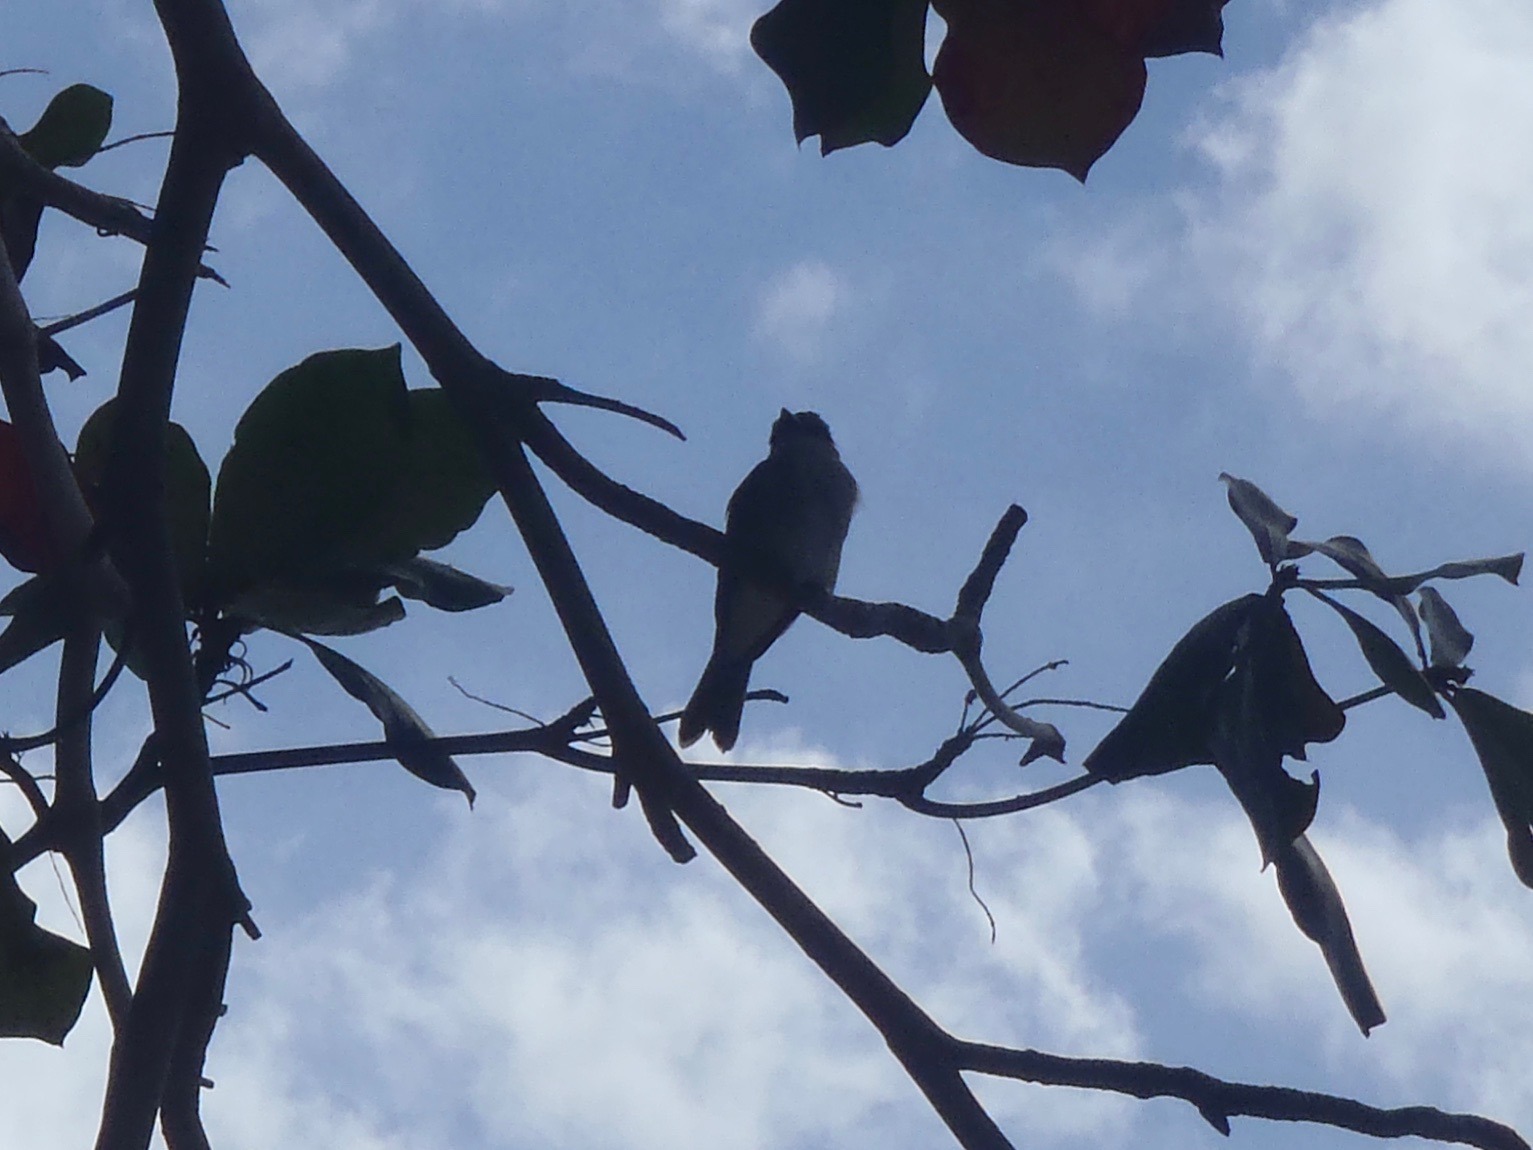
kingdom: Animalia
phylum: Chordata
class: Aves
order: Passeriformes
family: Tyrannidae
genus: Tyrannus
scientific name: Tyrannus dominicensis
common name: Gray kingbird
